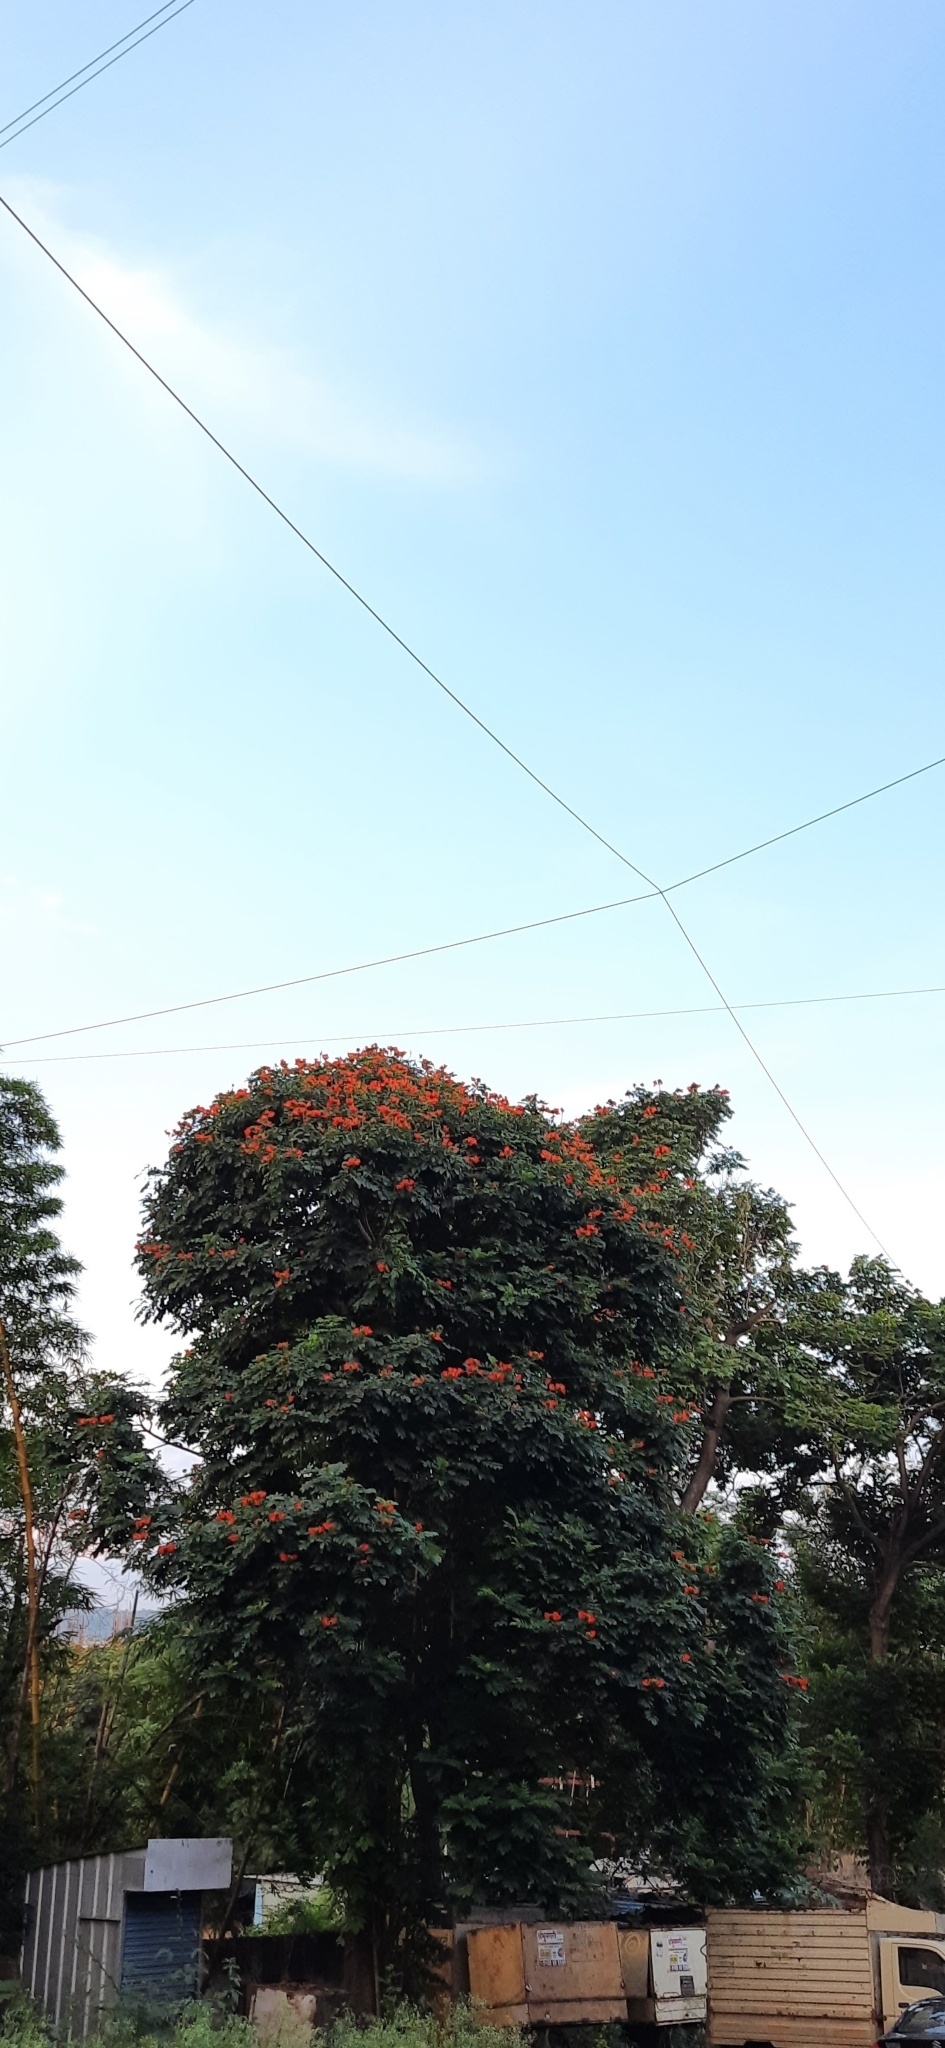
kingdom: Plantae
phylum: Tracheophyta
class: Magnoliopsida
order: Lamiales
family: Bignoniaceae
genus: Spathodea
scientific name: Spathodea campanulata
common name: African tuliptree
